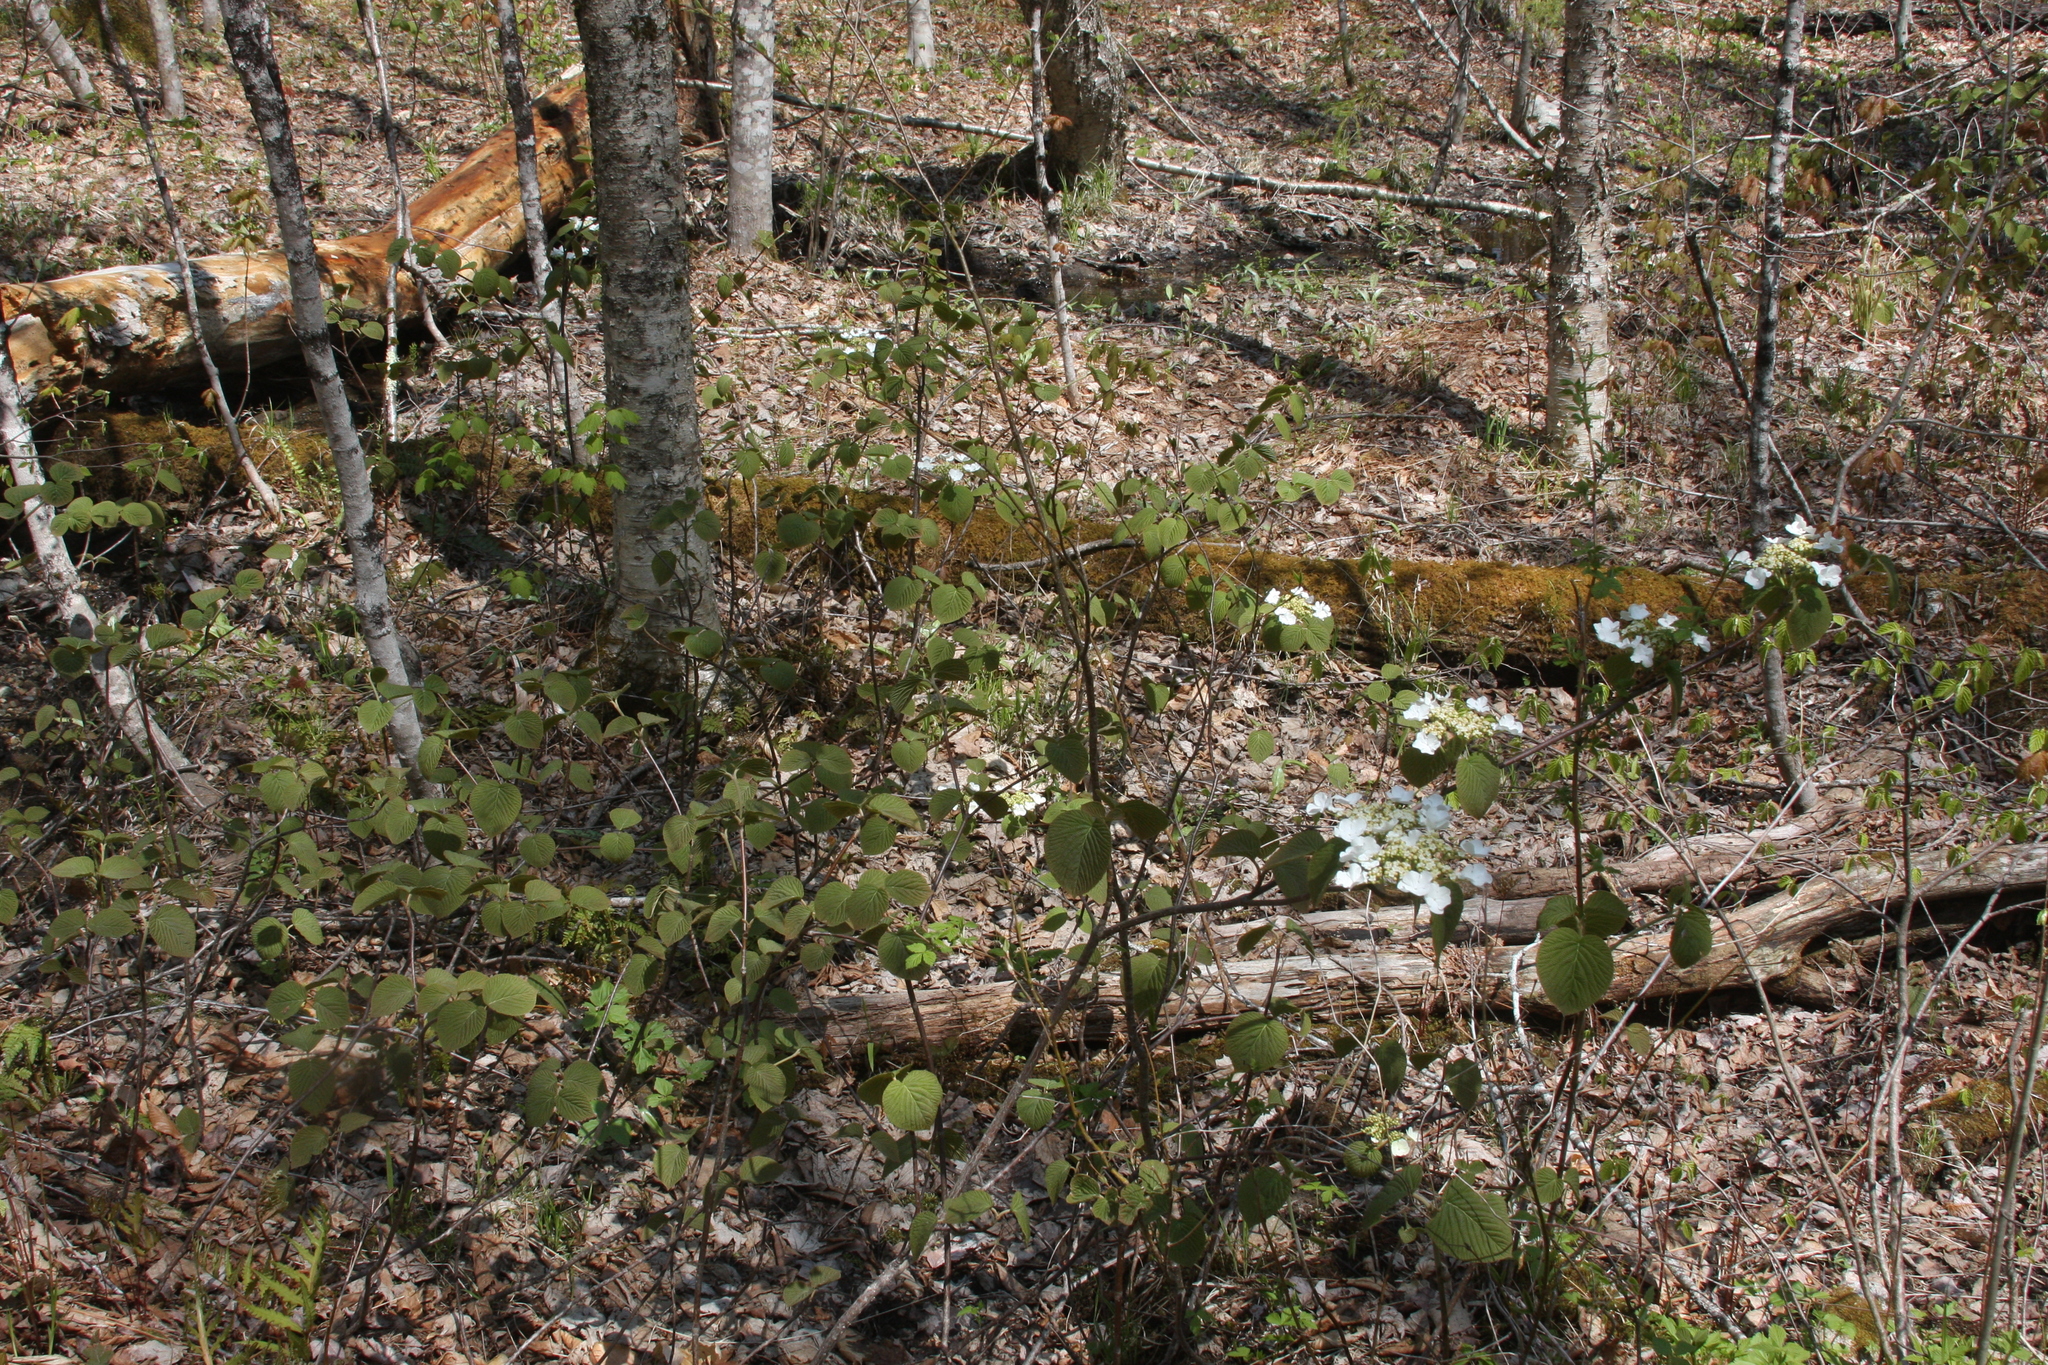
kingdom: Plantae
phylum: Tracheophyta
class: Magnoliopsida
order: Dipsacales
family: Viburnaceae
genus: Viburnum
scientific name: Viburnum lantanoides
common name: Hobblebush
